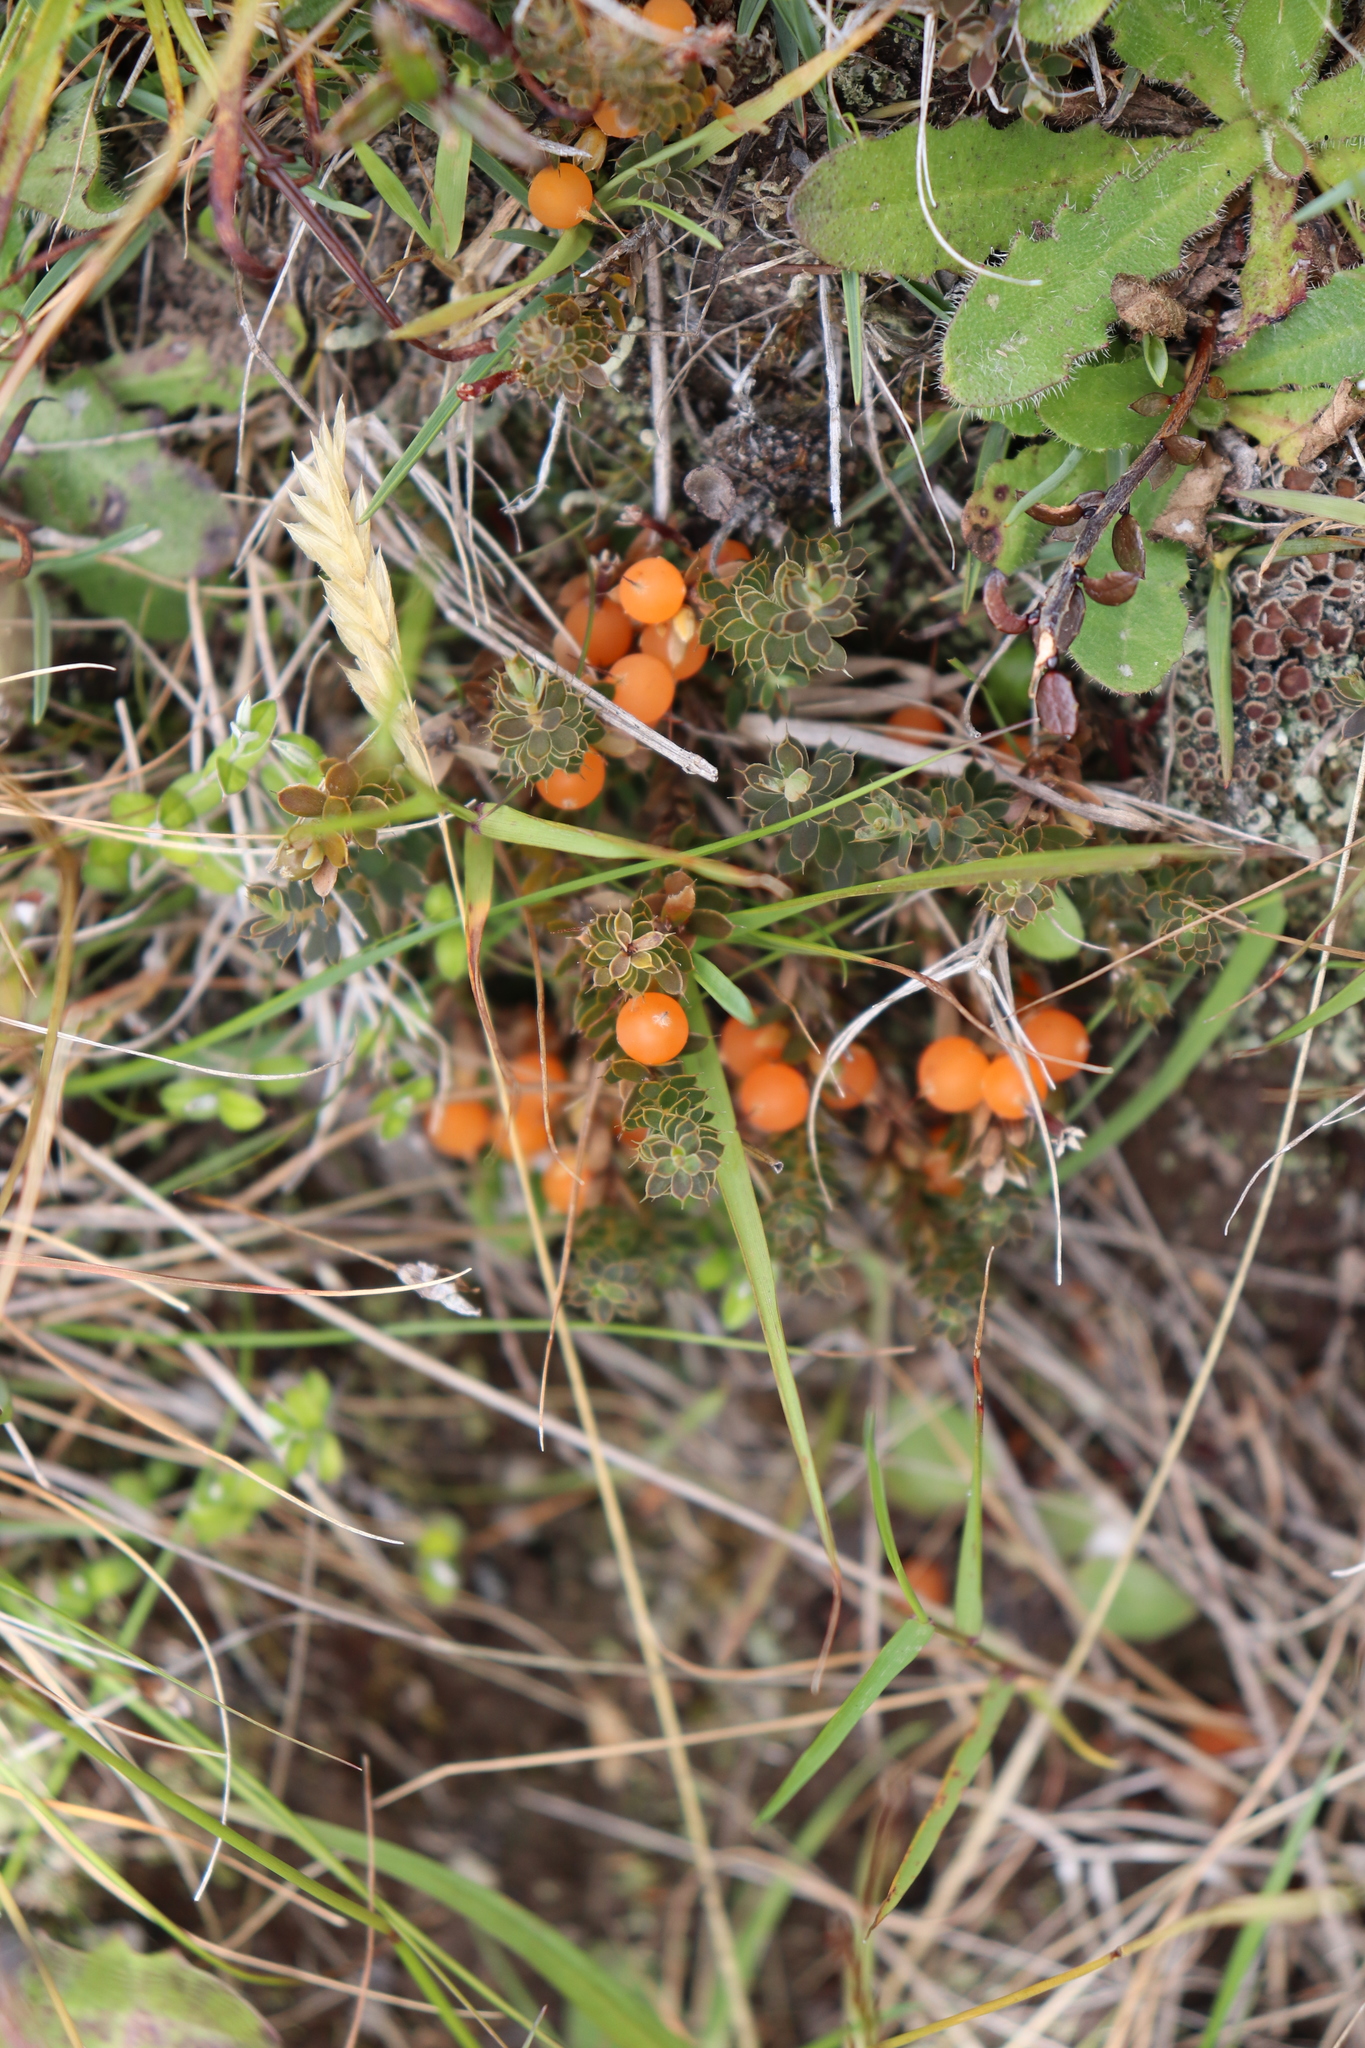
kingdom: Plantae
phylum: Tracheophyta
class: Magnoliopsida
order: Ericales
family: Ericaceae
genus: Styphelia
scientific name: Styphelia nesophila
